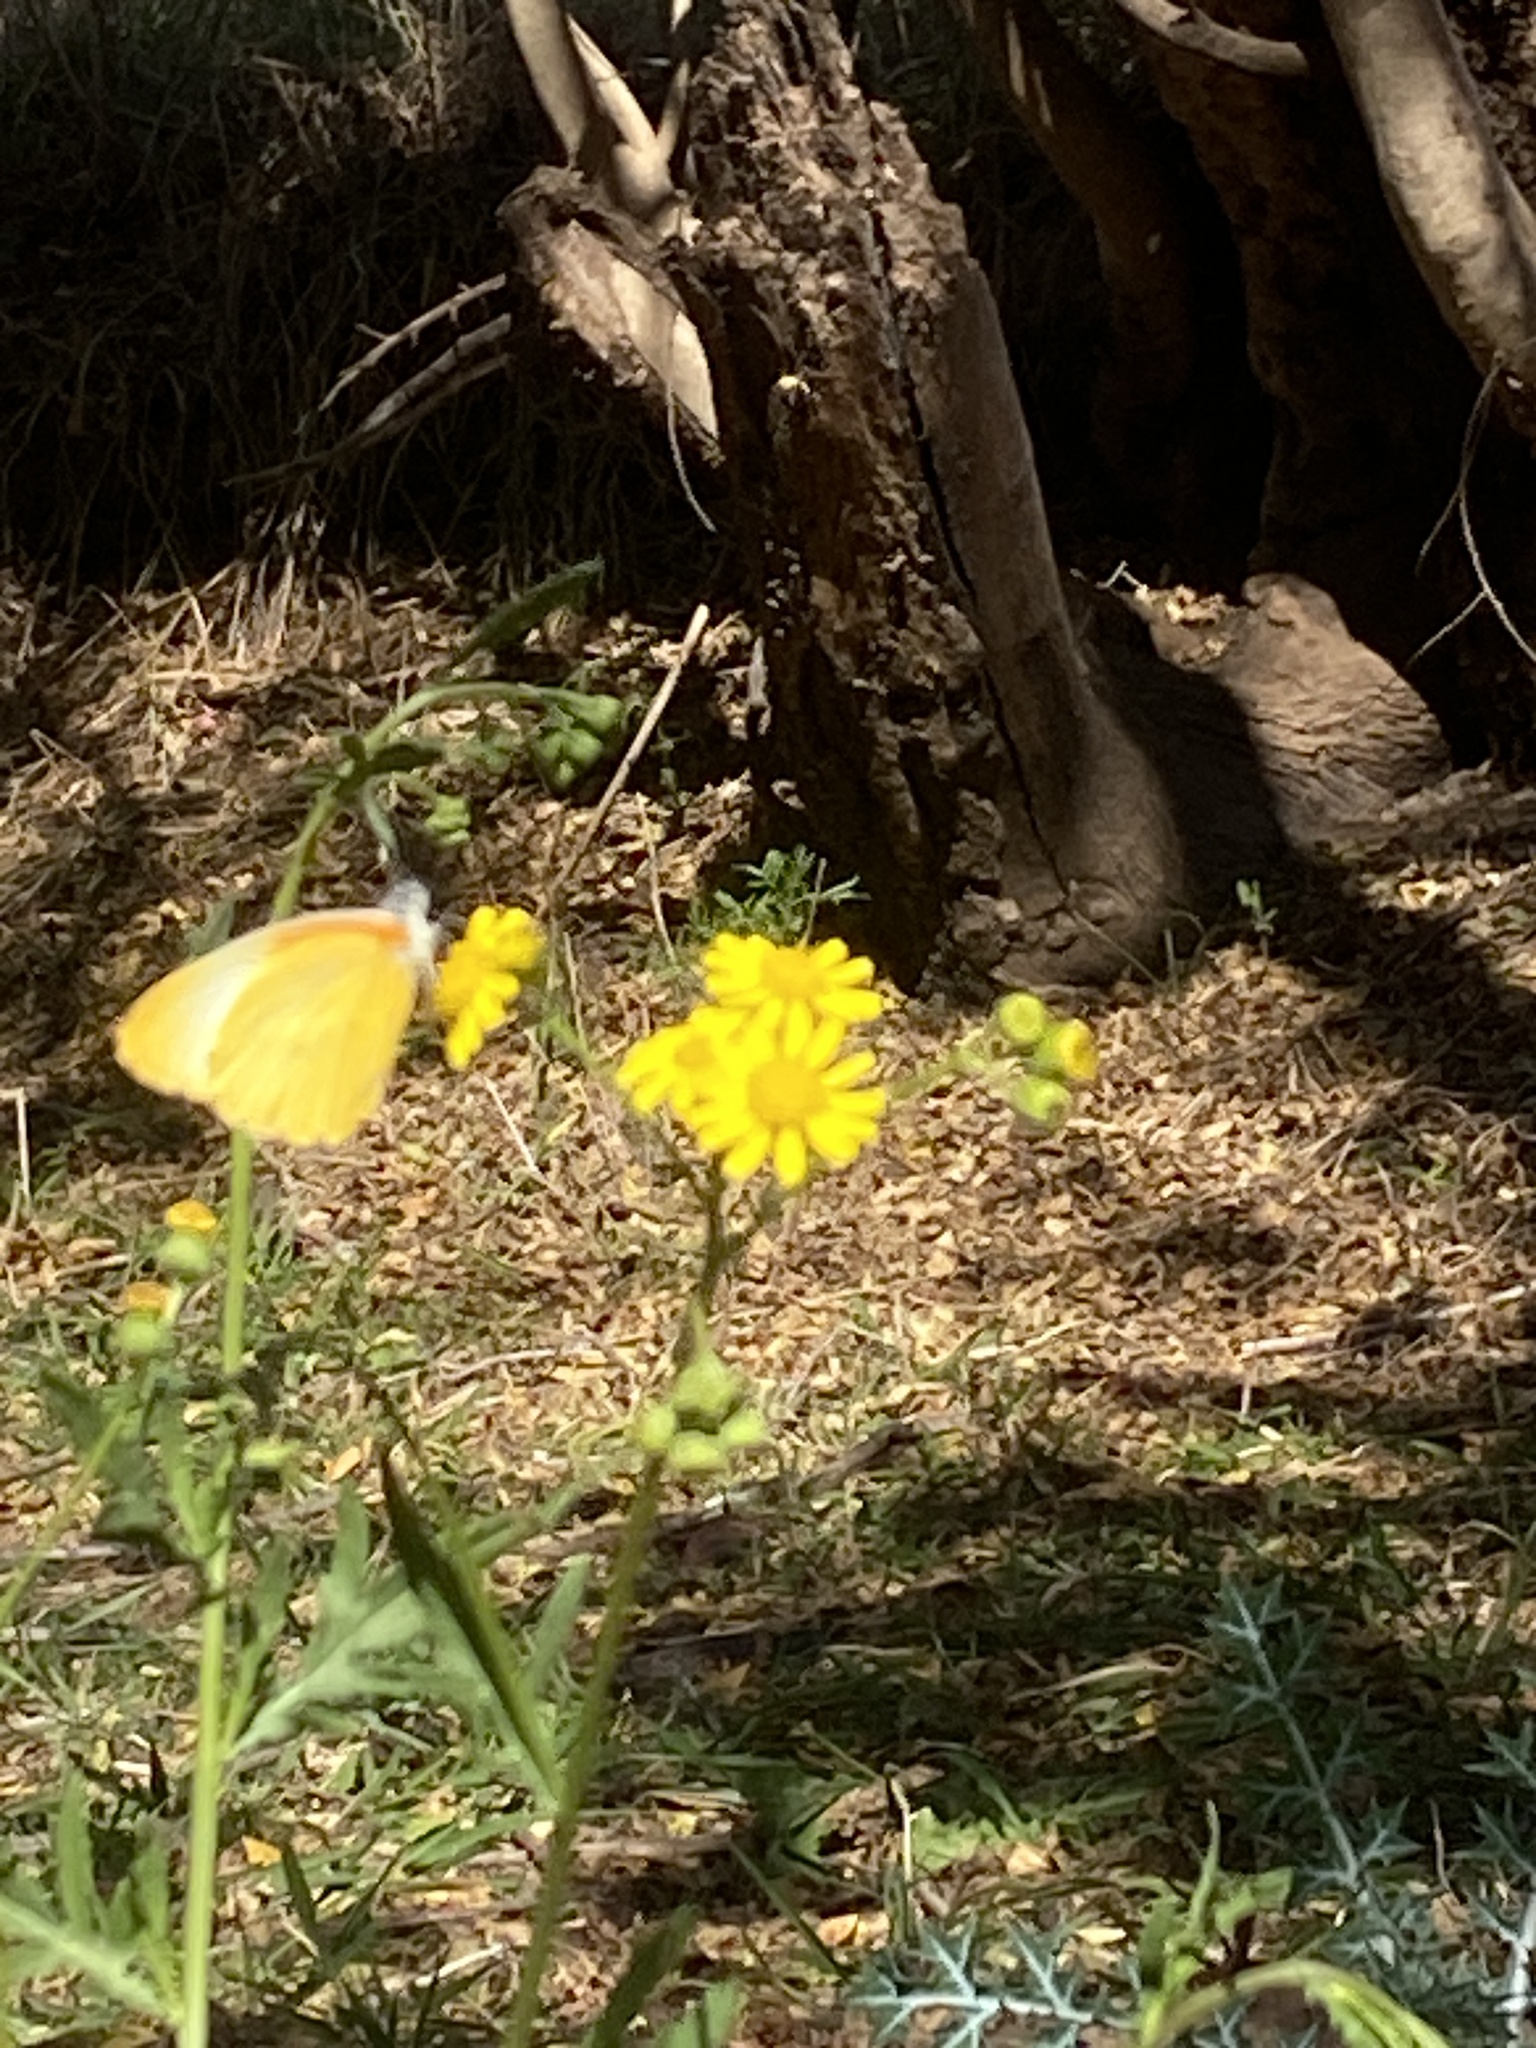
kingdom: Animalia
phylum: Arthropoda
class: Insecta
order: Lepidoptera
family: Pieridae
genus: Mylothris
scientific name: Mylothris agathina
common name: Eastern dotted border
